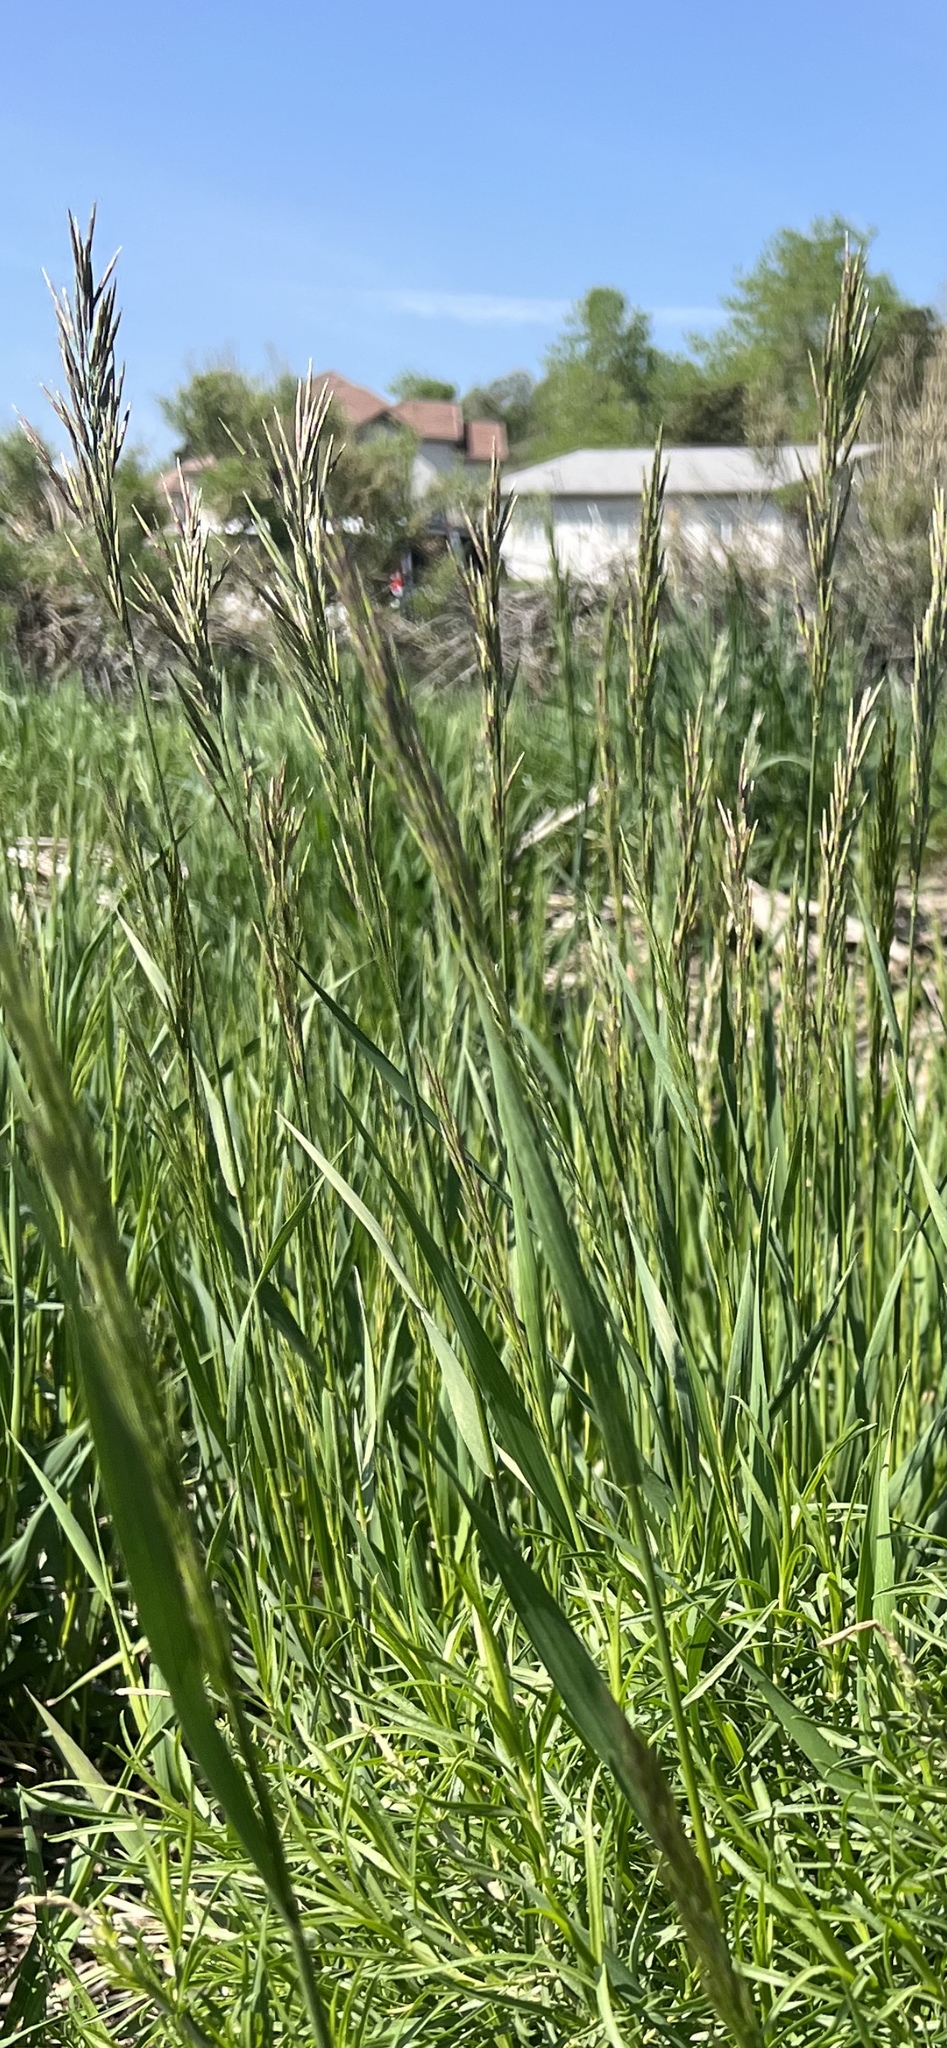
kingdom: Plantae
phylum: Tracheophyta
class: Liliopsida
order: Poales
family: Poaceae
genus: Bromus
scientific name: Bromus inermis
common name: Smooth brome
